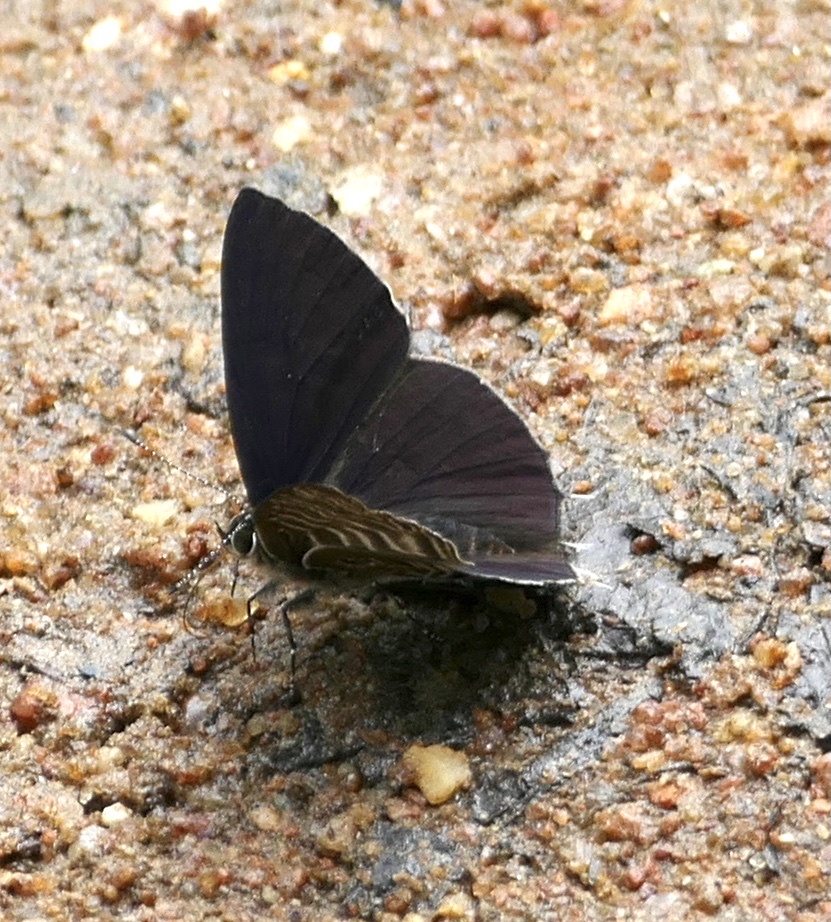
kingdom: Animalia
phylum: Arthropoda
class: Insecta
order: Lepidoptera
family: Lycaenidae
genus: Anthene
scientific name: Anthene larydas
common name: Forest hairtail
